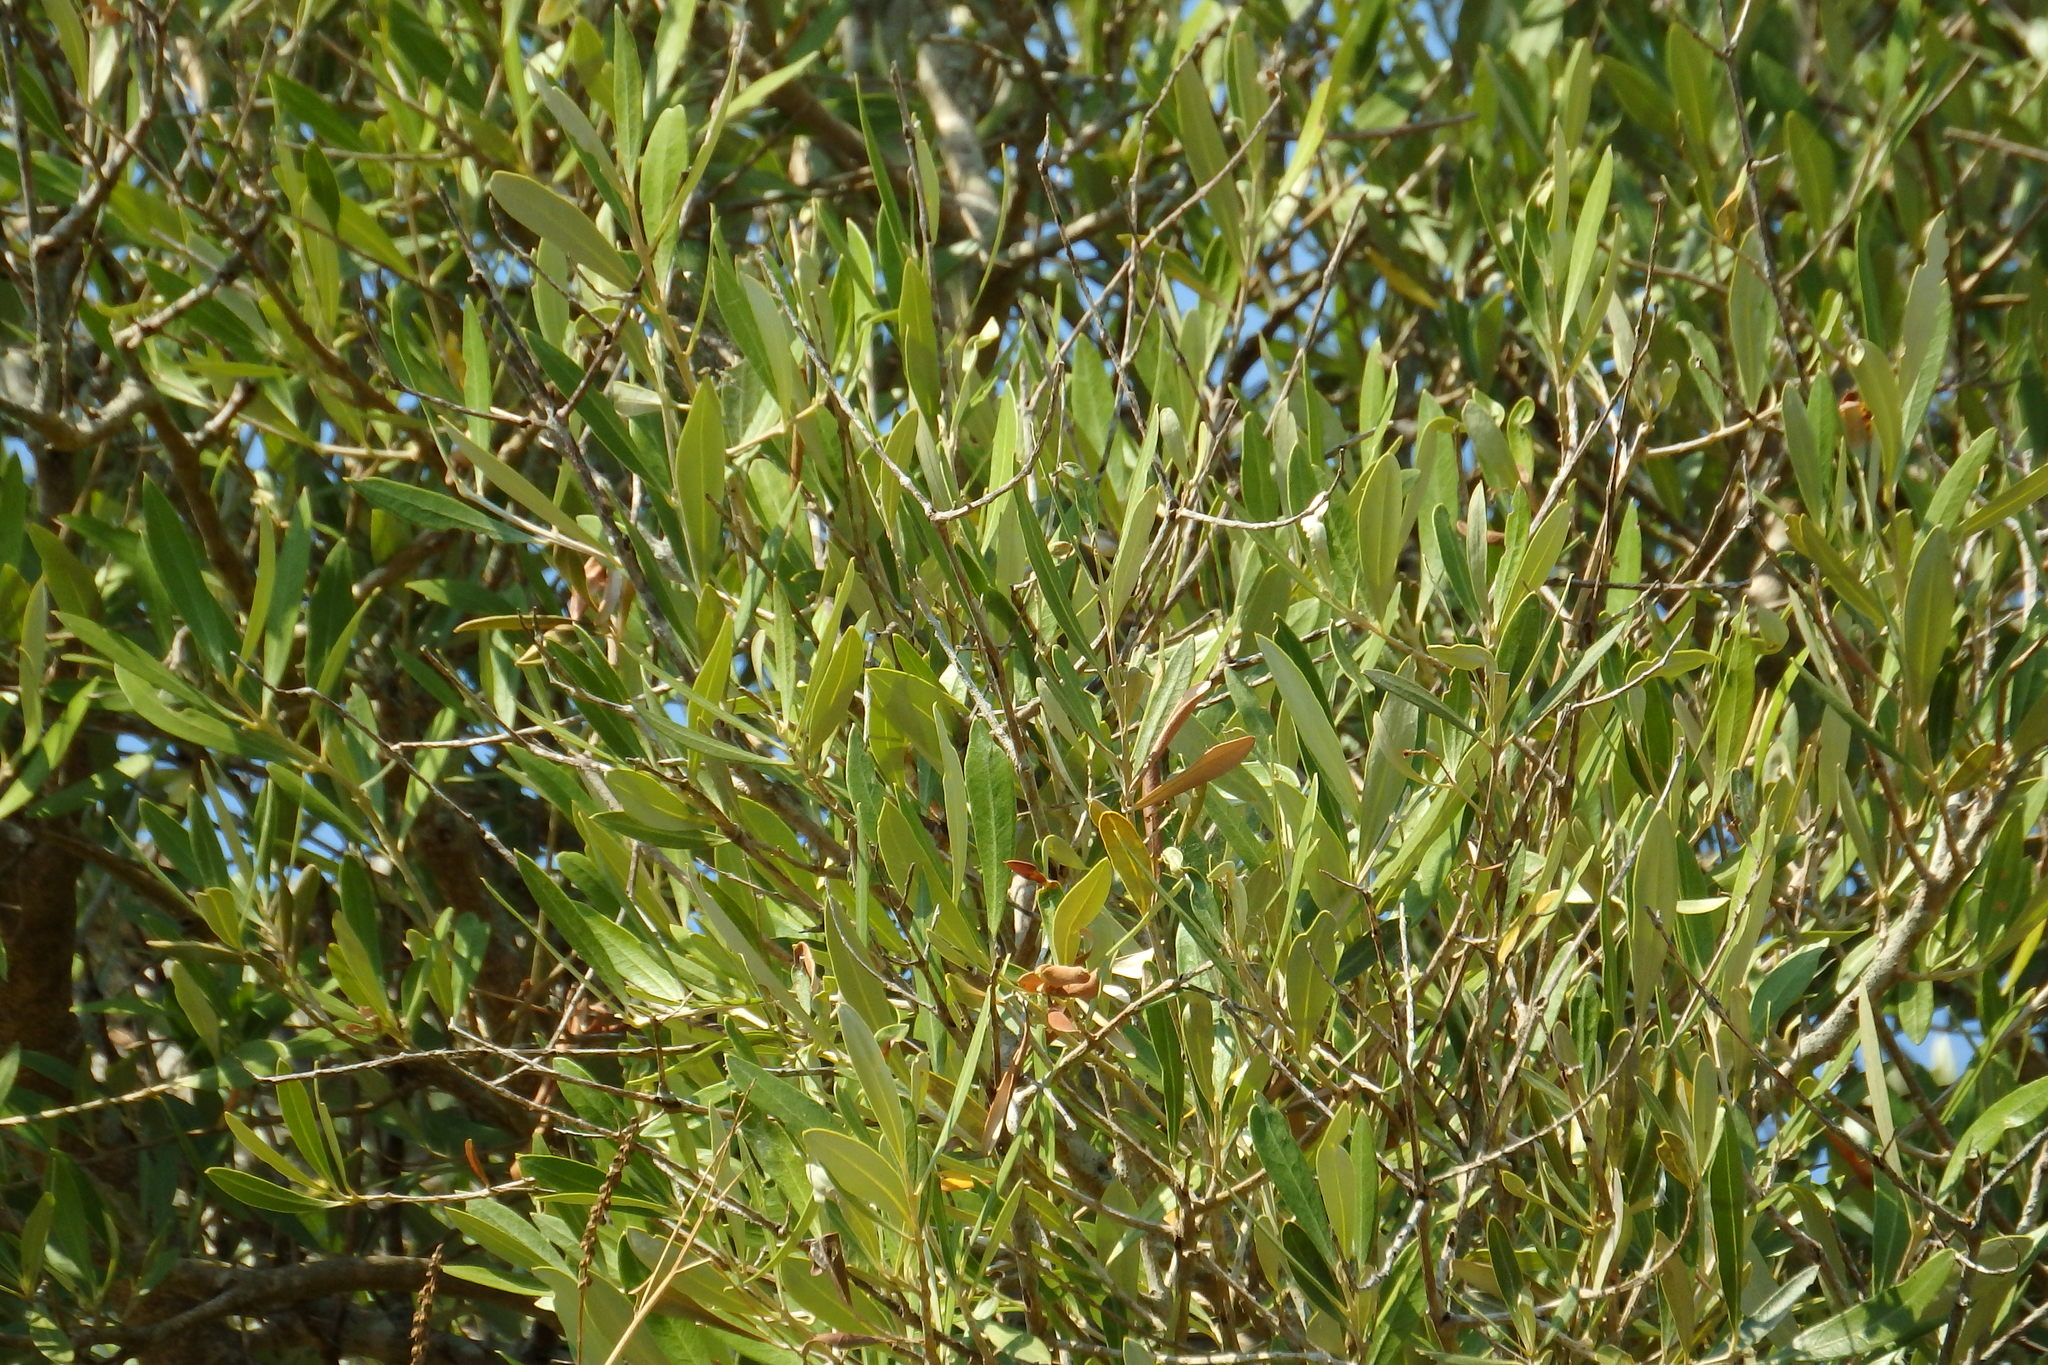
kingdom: Plantae
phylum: Tracheophyta
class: Magnoliopsida
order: Lamiales
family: Oleaceae
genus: Olea
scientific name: Olea europaea
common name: Olive
